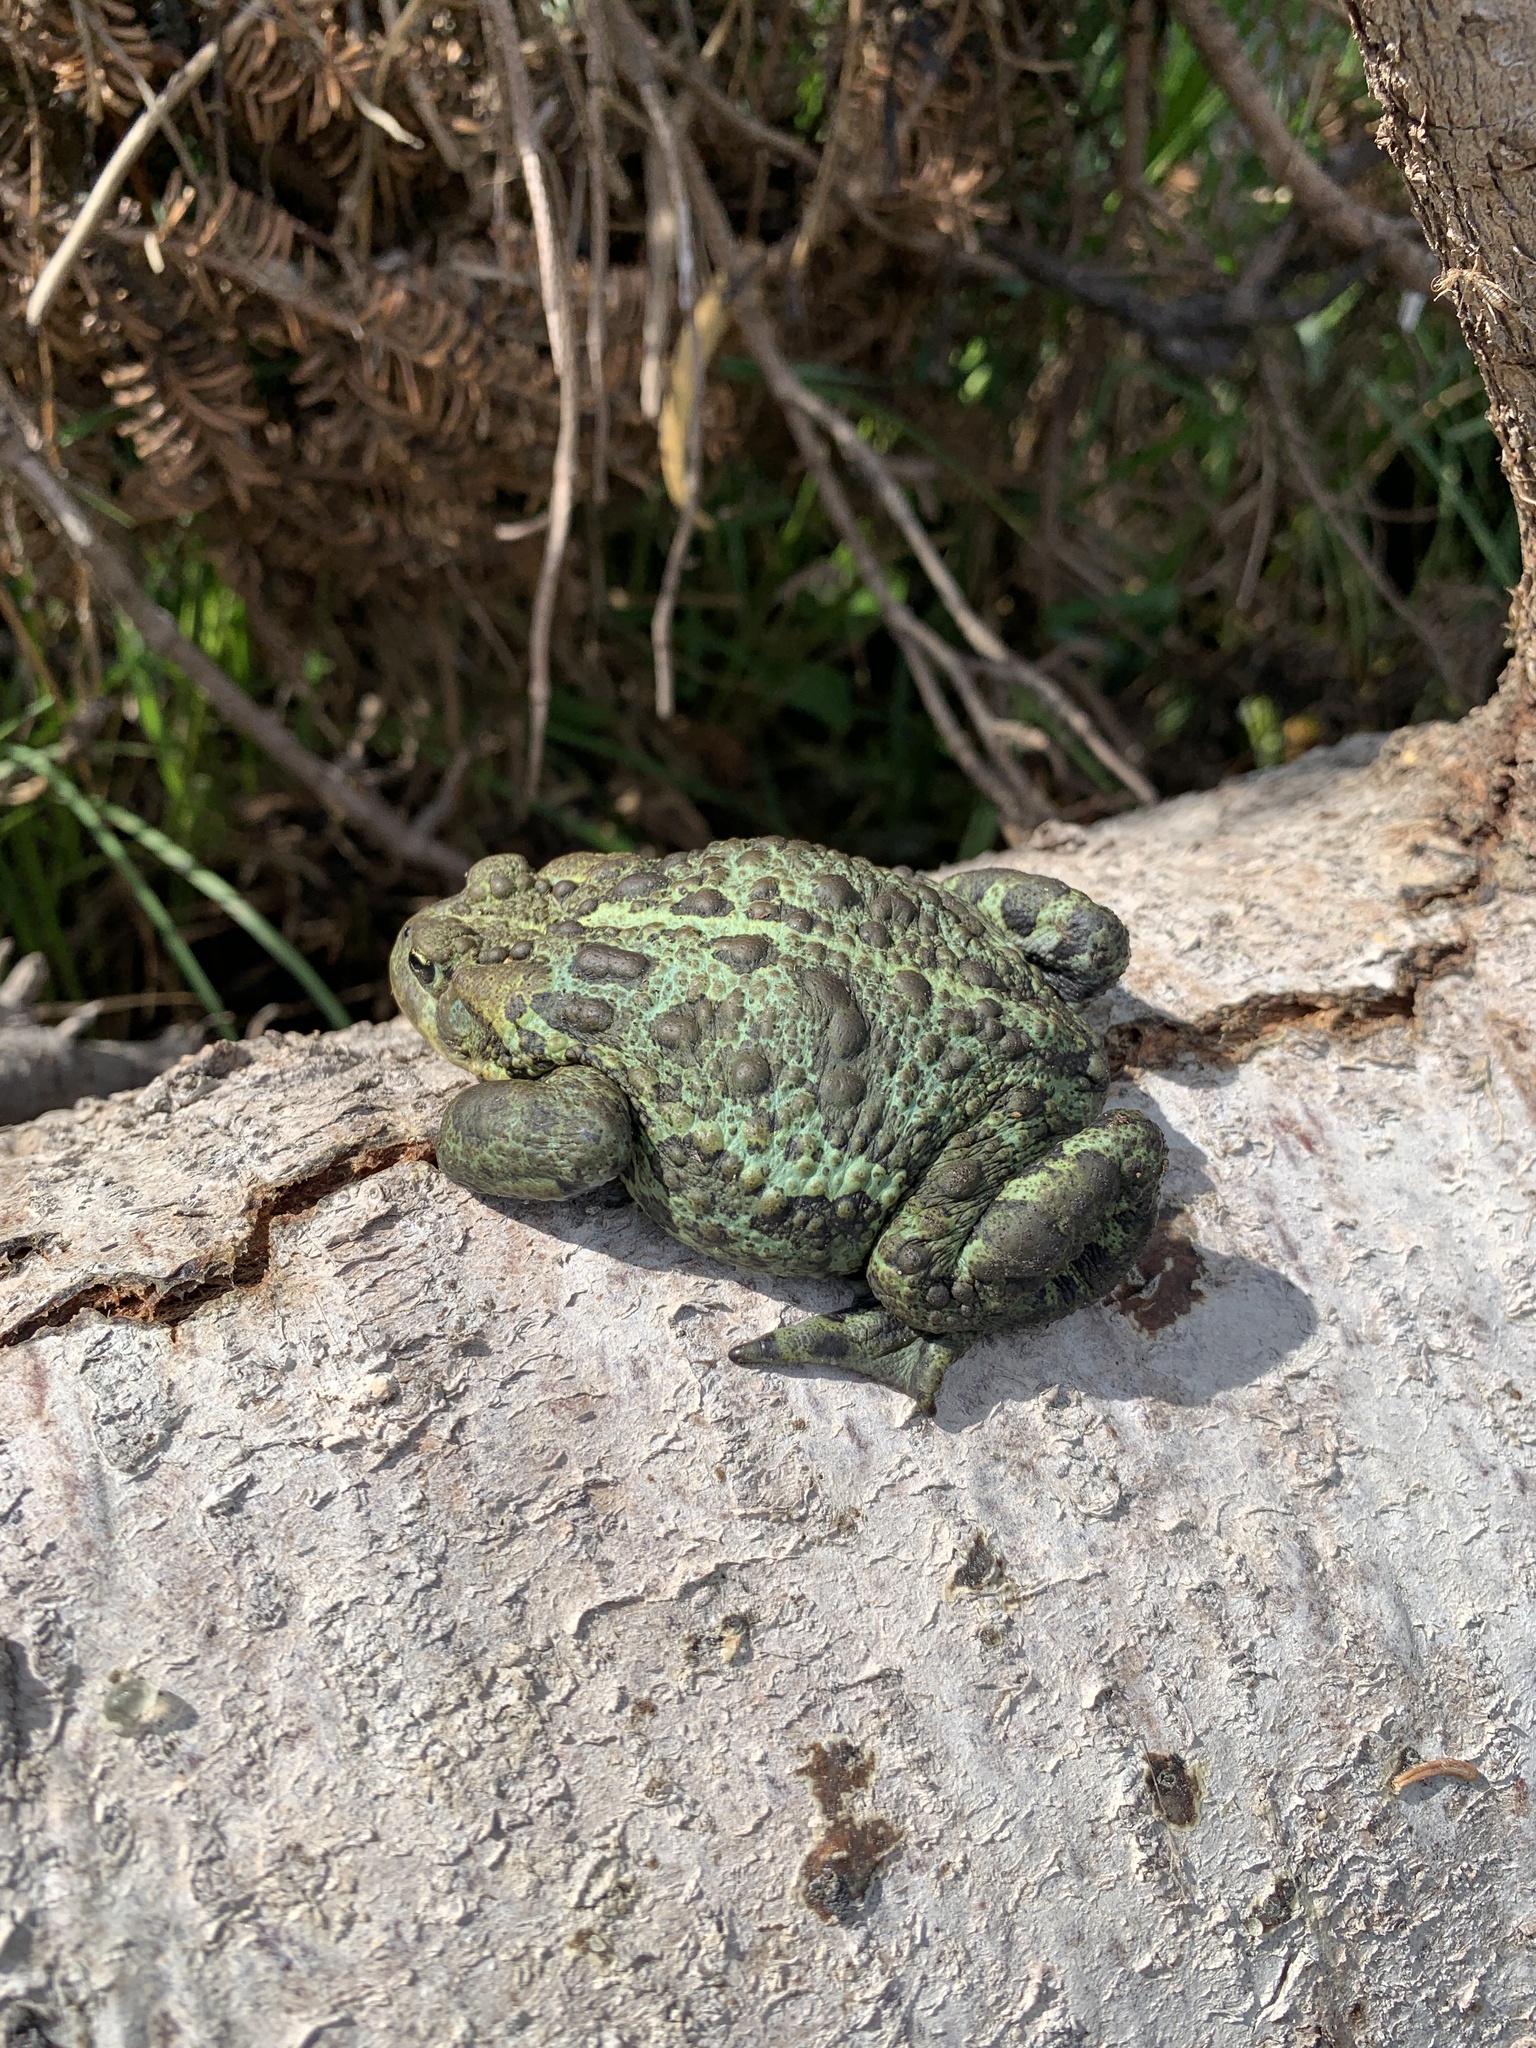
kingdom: Animalia
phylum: Chordata
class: Amphibia
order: Anura
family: Bufonidae
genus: Anaxyrus
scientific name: Anaxyrus boreas
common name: Western toad
